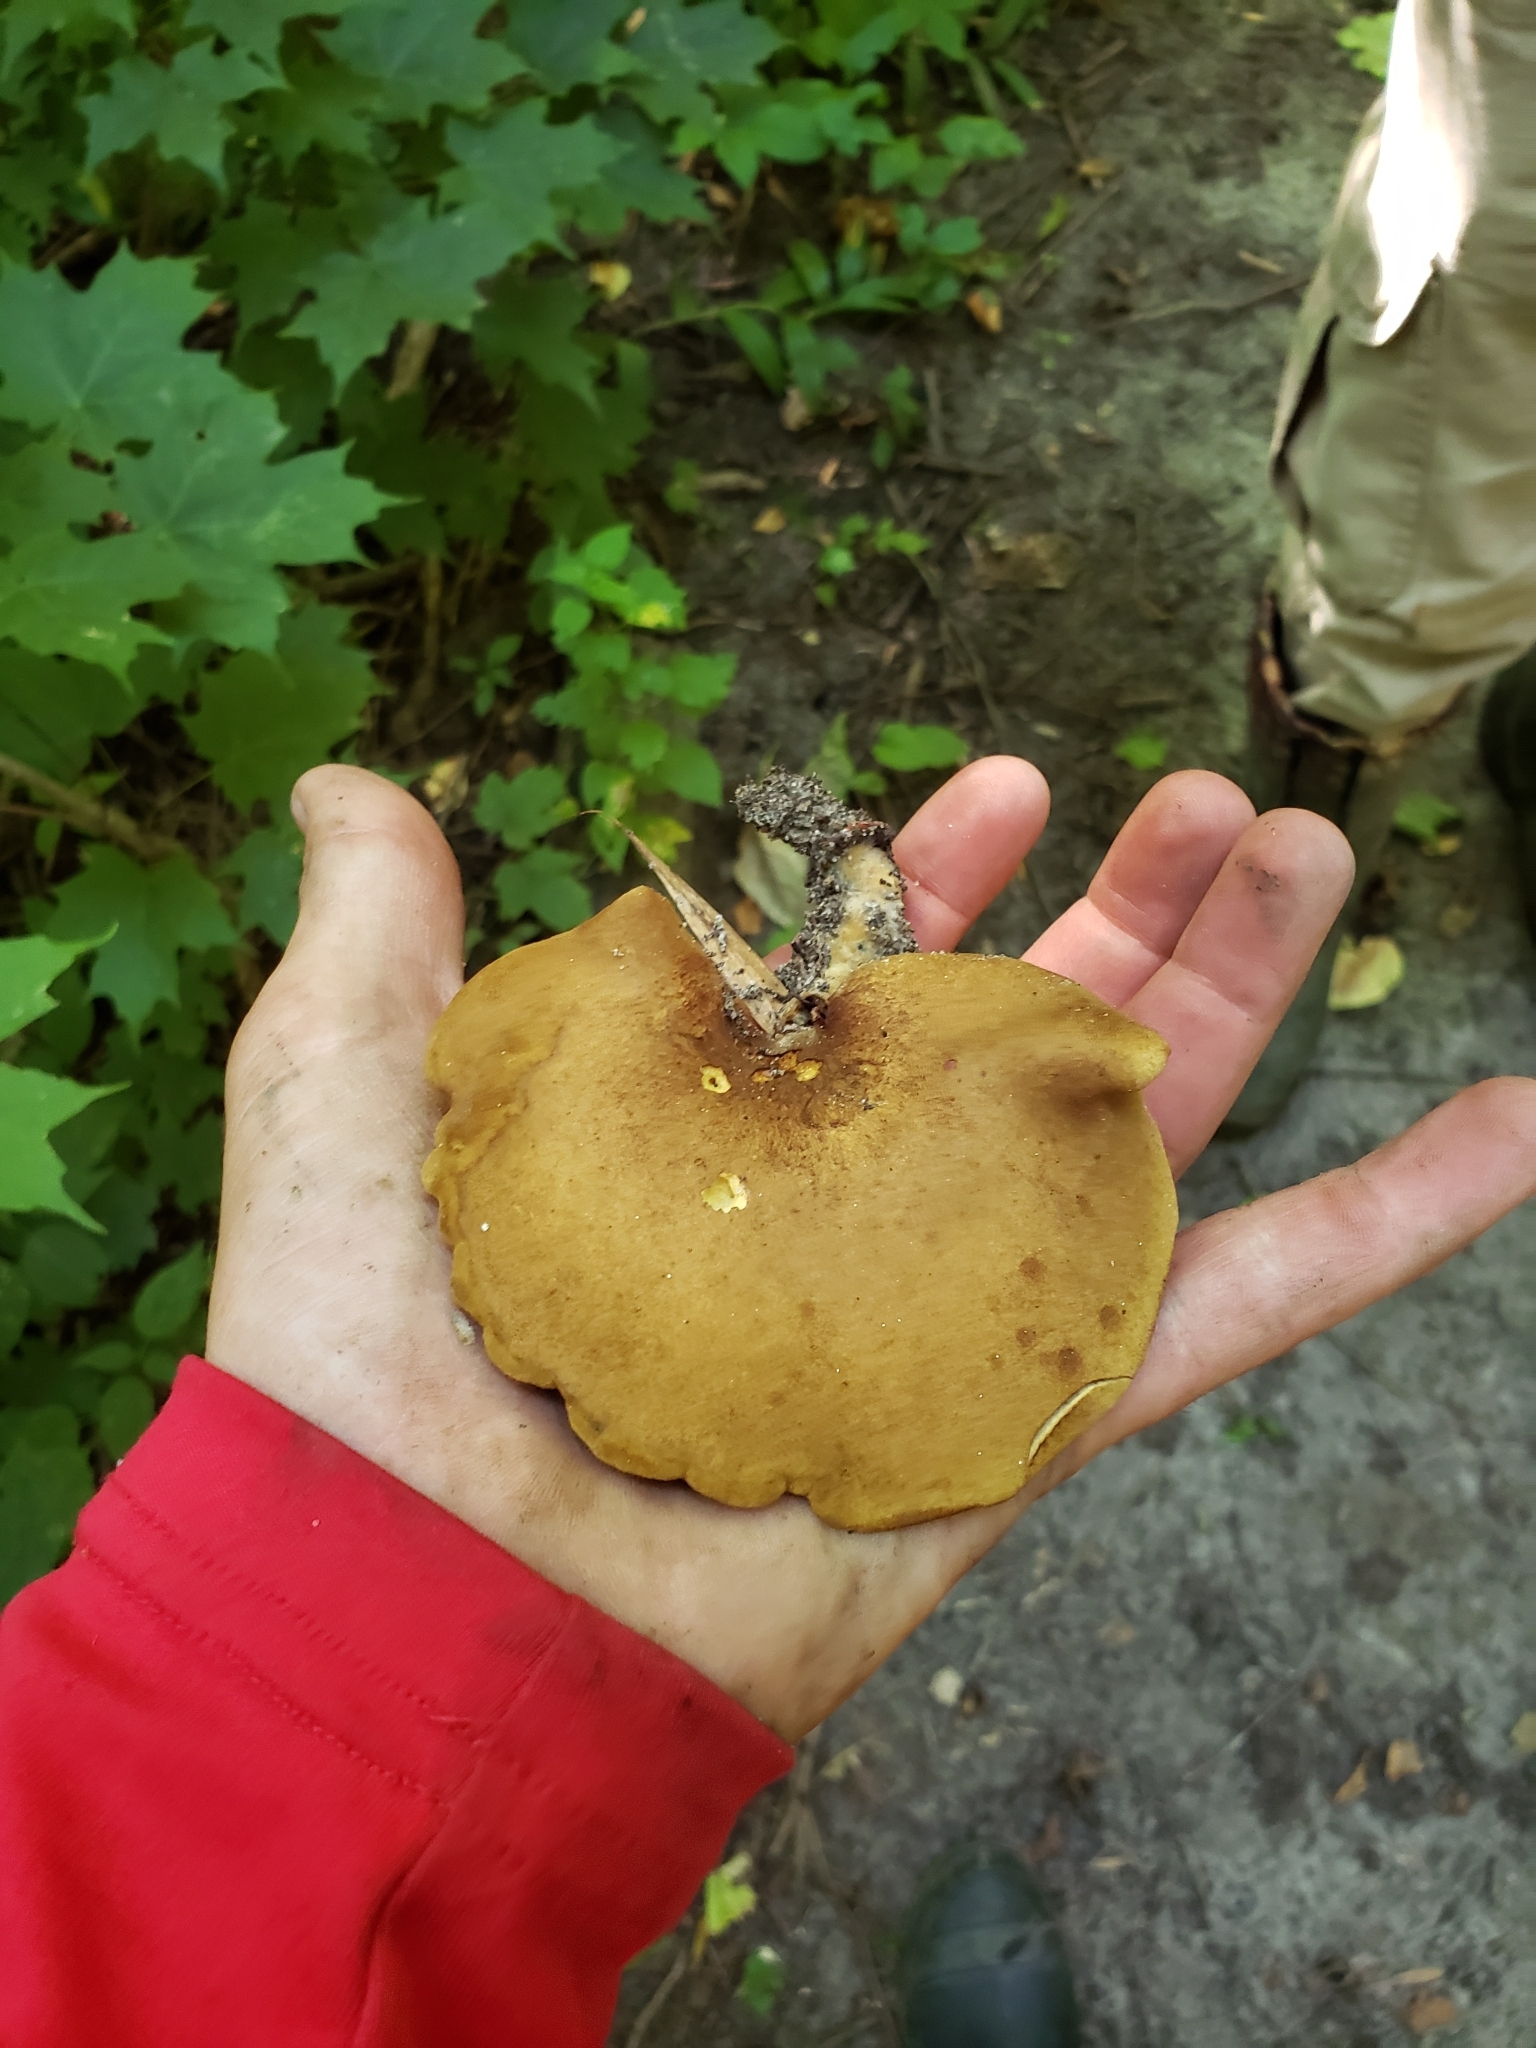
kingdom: Fungi
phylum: Basidiomycota
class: Agaricomycetes
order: Boletales
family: Boletinellaceae
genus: Boletinellus
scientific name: Boletinellus merulioides
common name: Ash tree bolete
